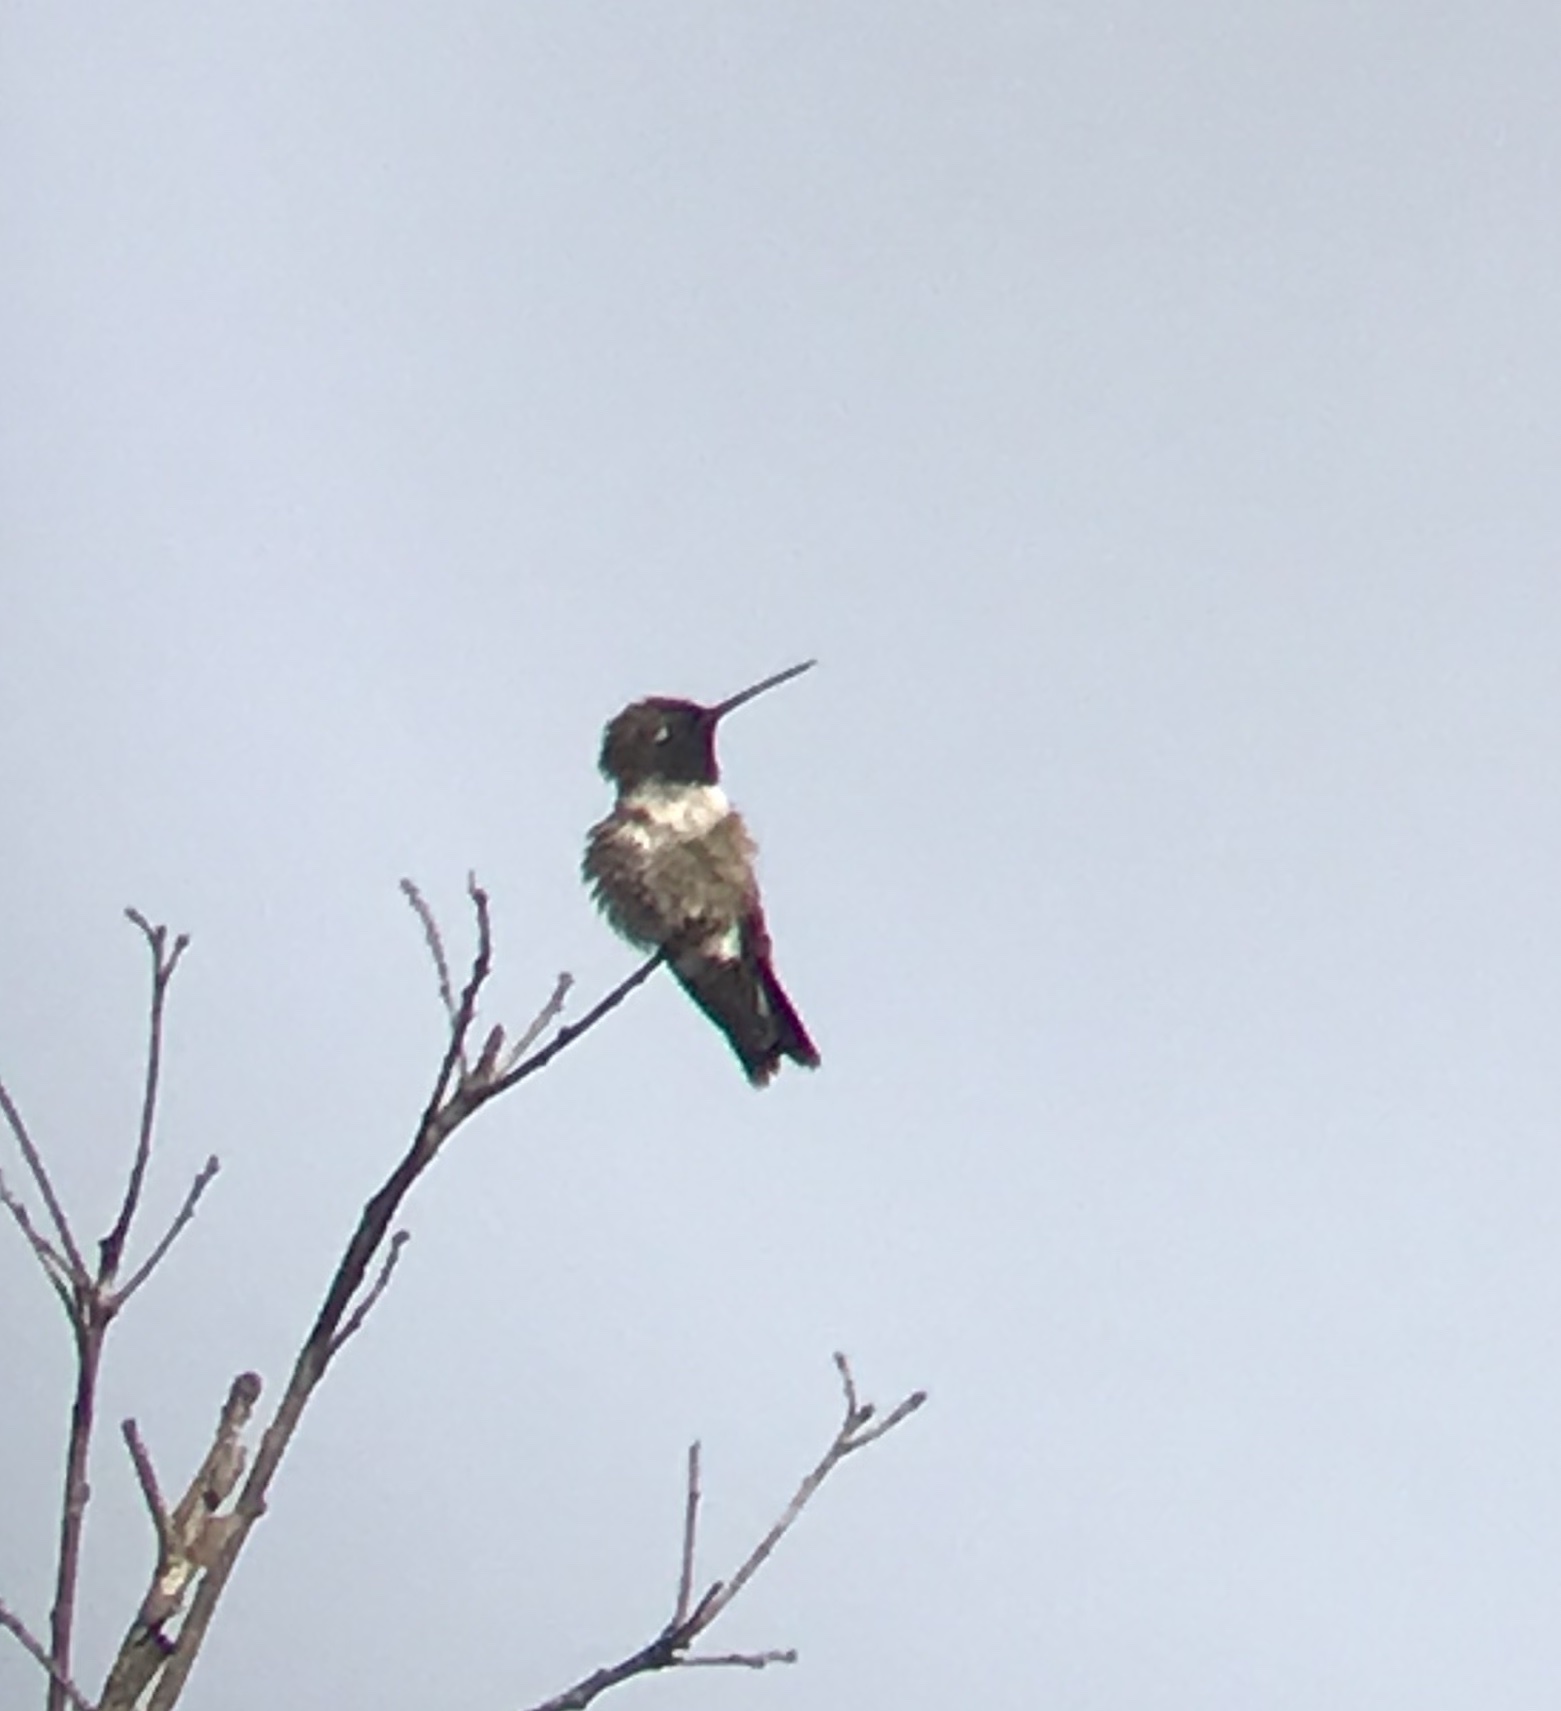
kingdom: Animalia
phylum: Chordata
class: Aves
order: Apodiformes
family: Trochilidae
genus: Archilochus
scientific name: Archilochus alexandri
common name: Black-chinned hummingbird
